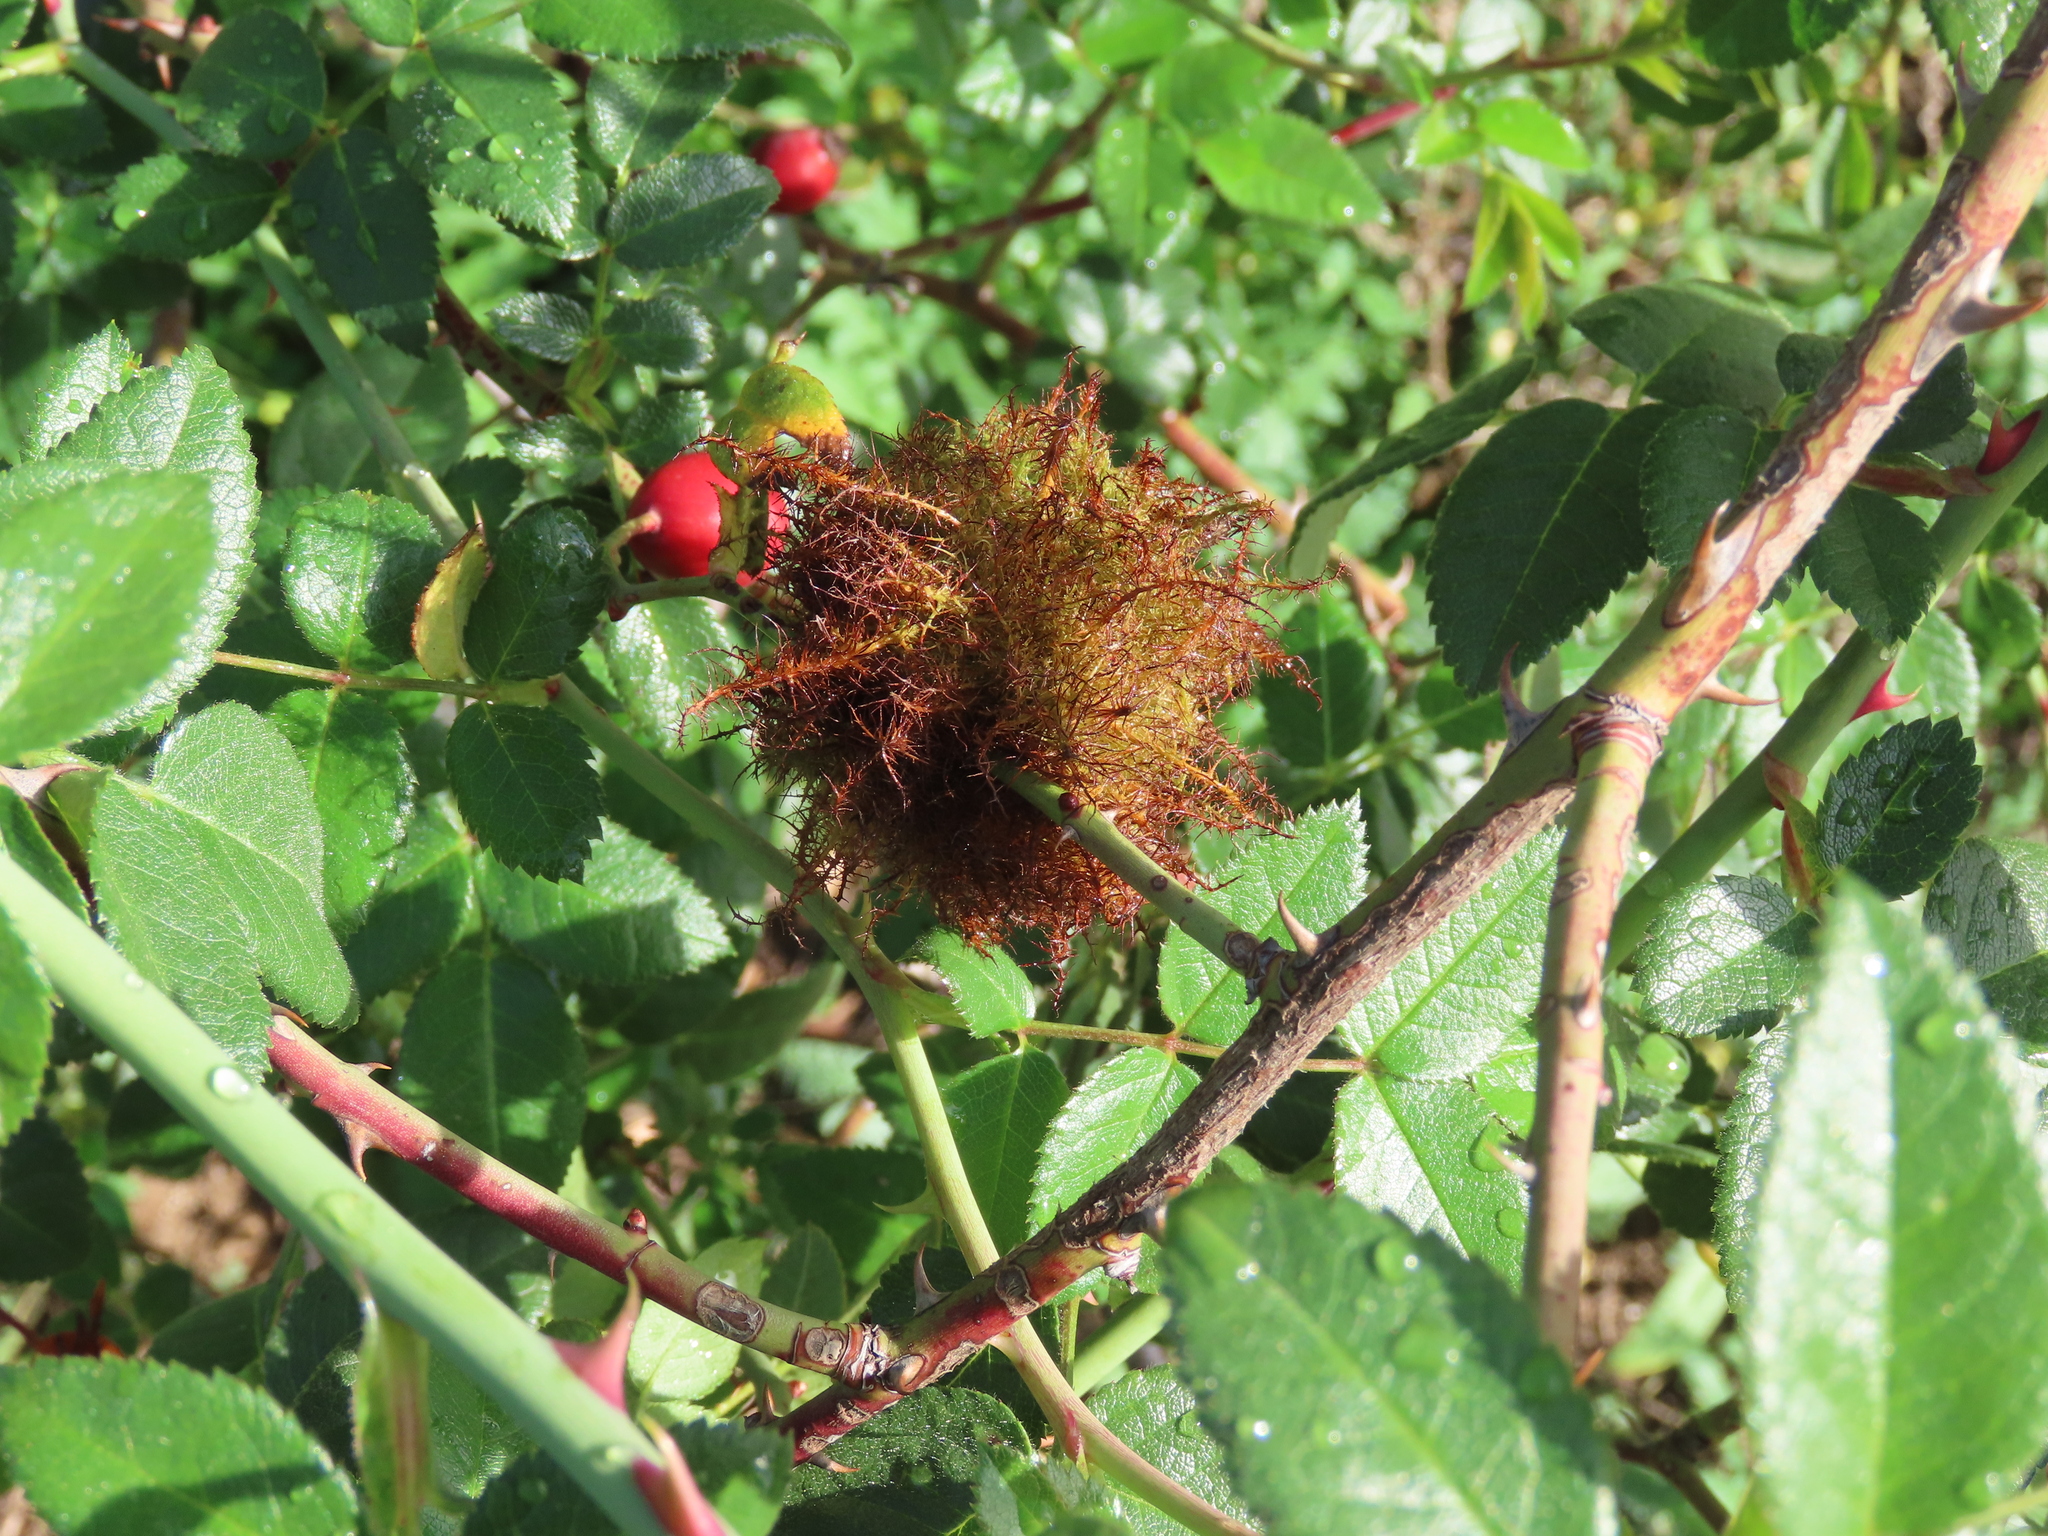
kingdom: Animalia
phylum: Arthropoda
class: Insecta
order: Hymenoptera
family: Cynipidae
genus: Diplolepis
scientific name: Diplolepis rosae
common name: Bedeguar gall
